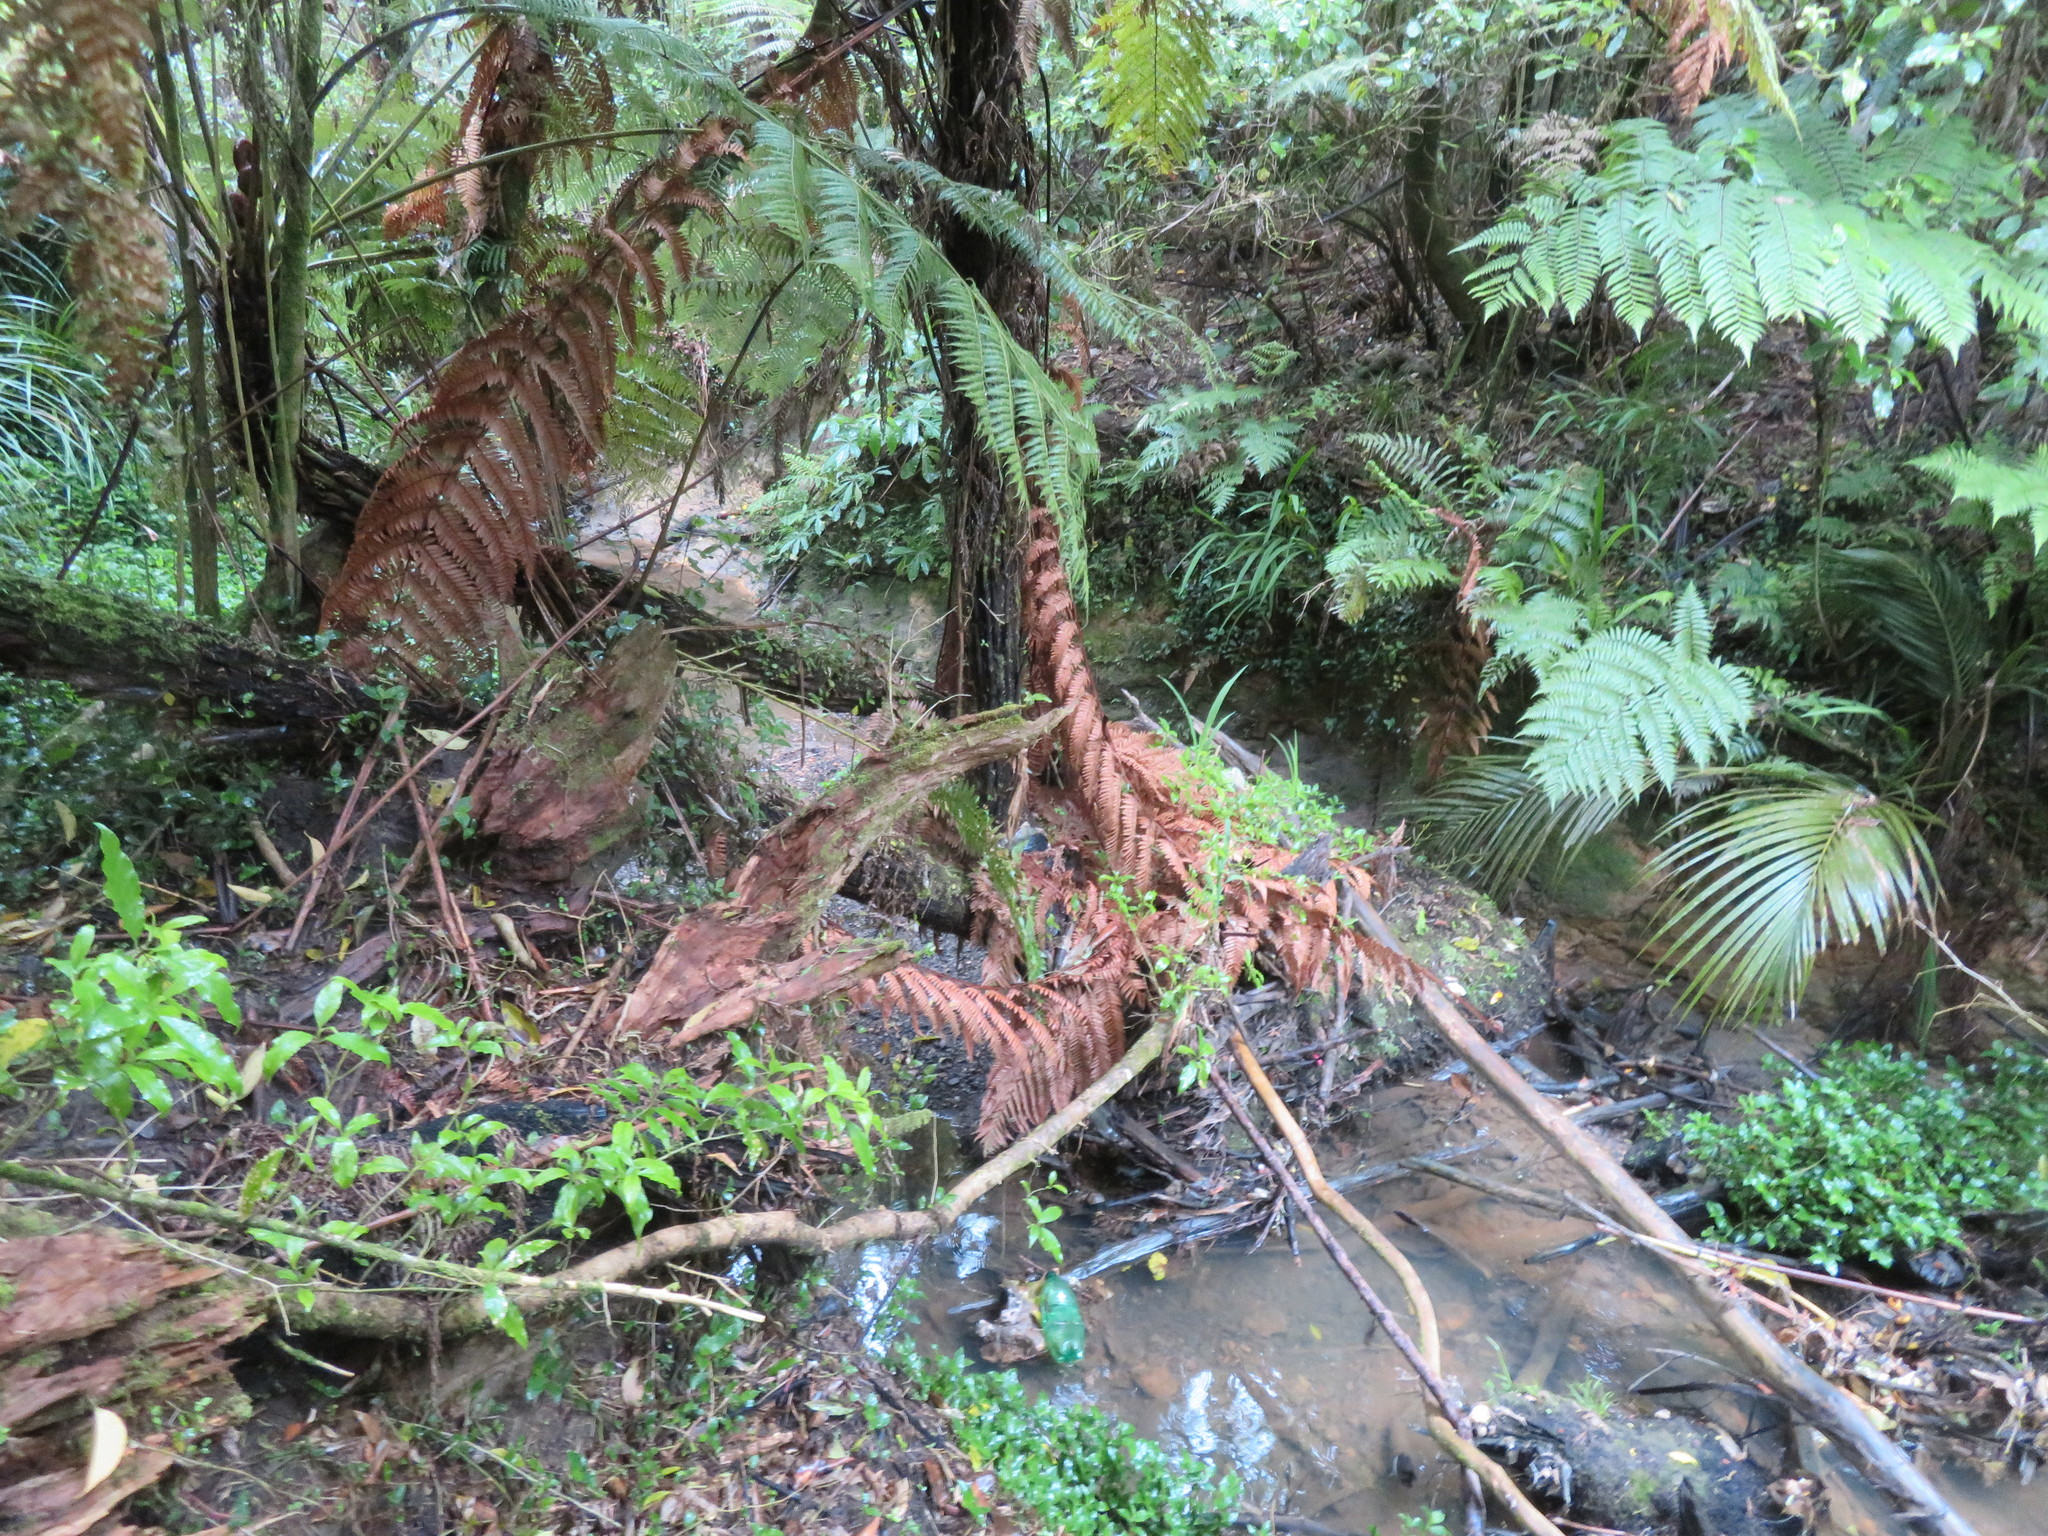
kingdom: Plantae
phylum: Tracheophyta
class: Magnoliopsida
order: Malpighiales
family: Violaceae
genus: Melicytus
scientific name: Melicytus ramiflorus
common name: Mahoe
